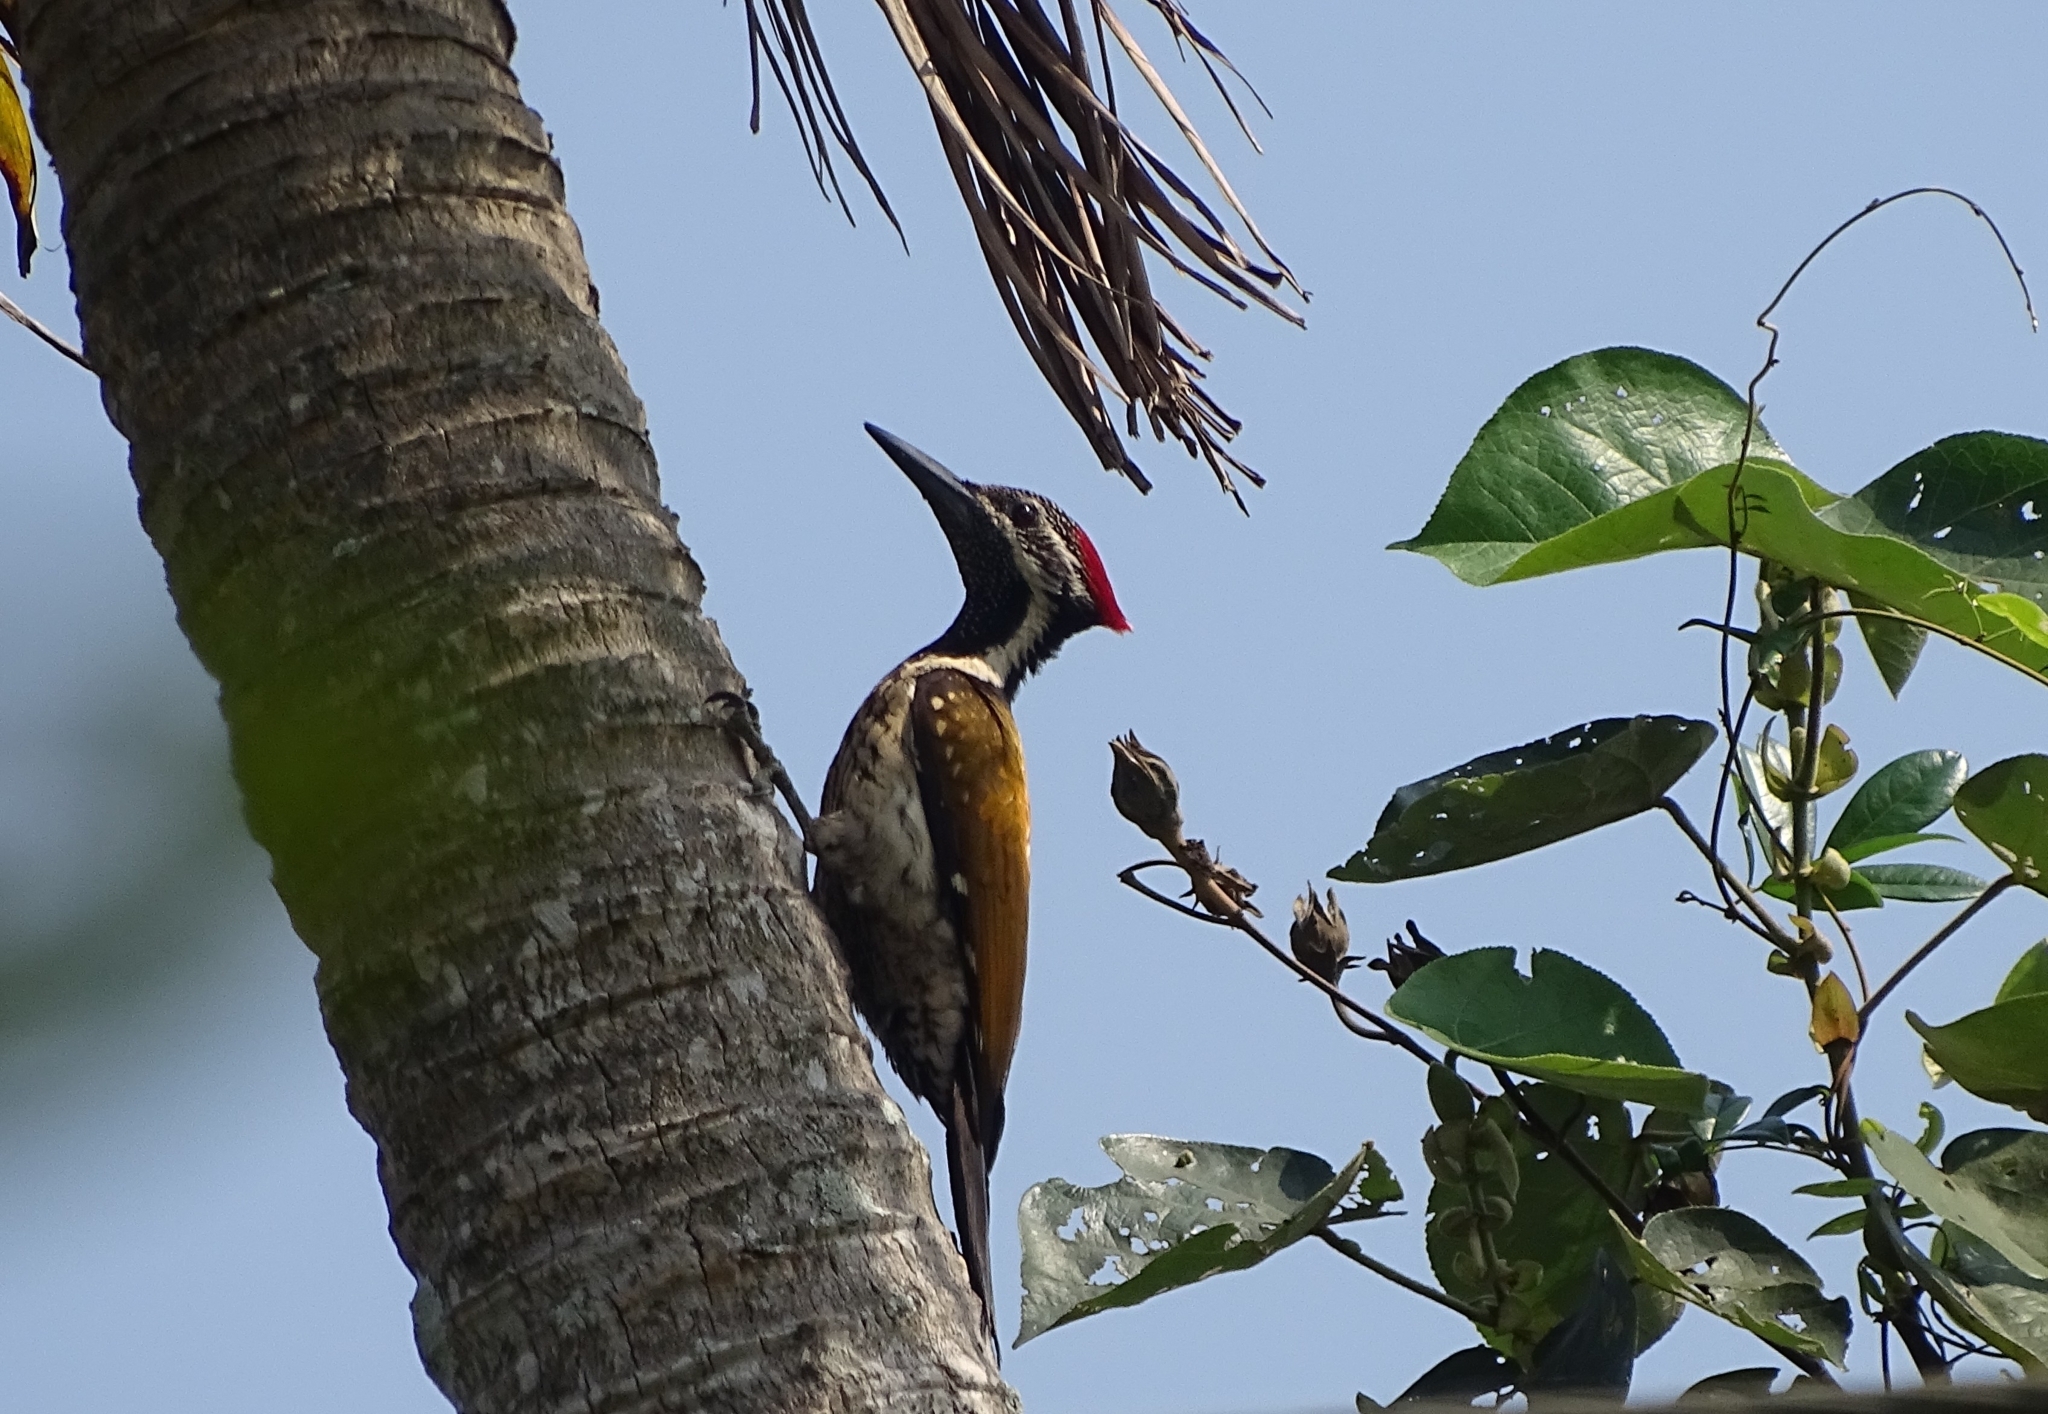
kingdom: Animalia
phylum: Chordata
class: Aves
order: Piciformes
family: Picidae
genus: Dinopium
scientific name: Dinopium benghalense
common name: Black-rumped flameback
